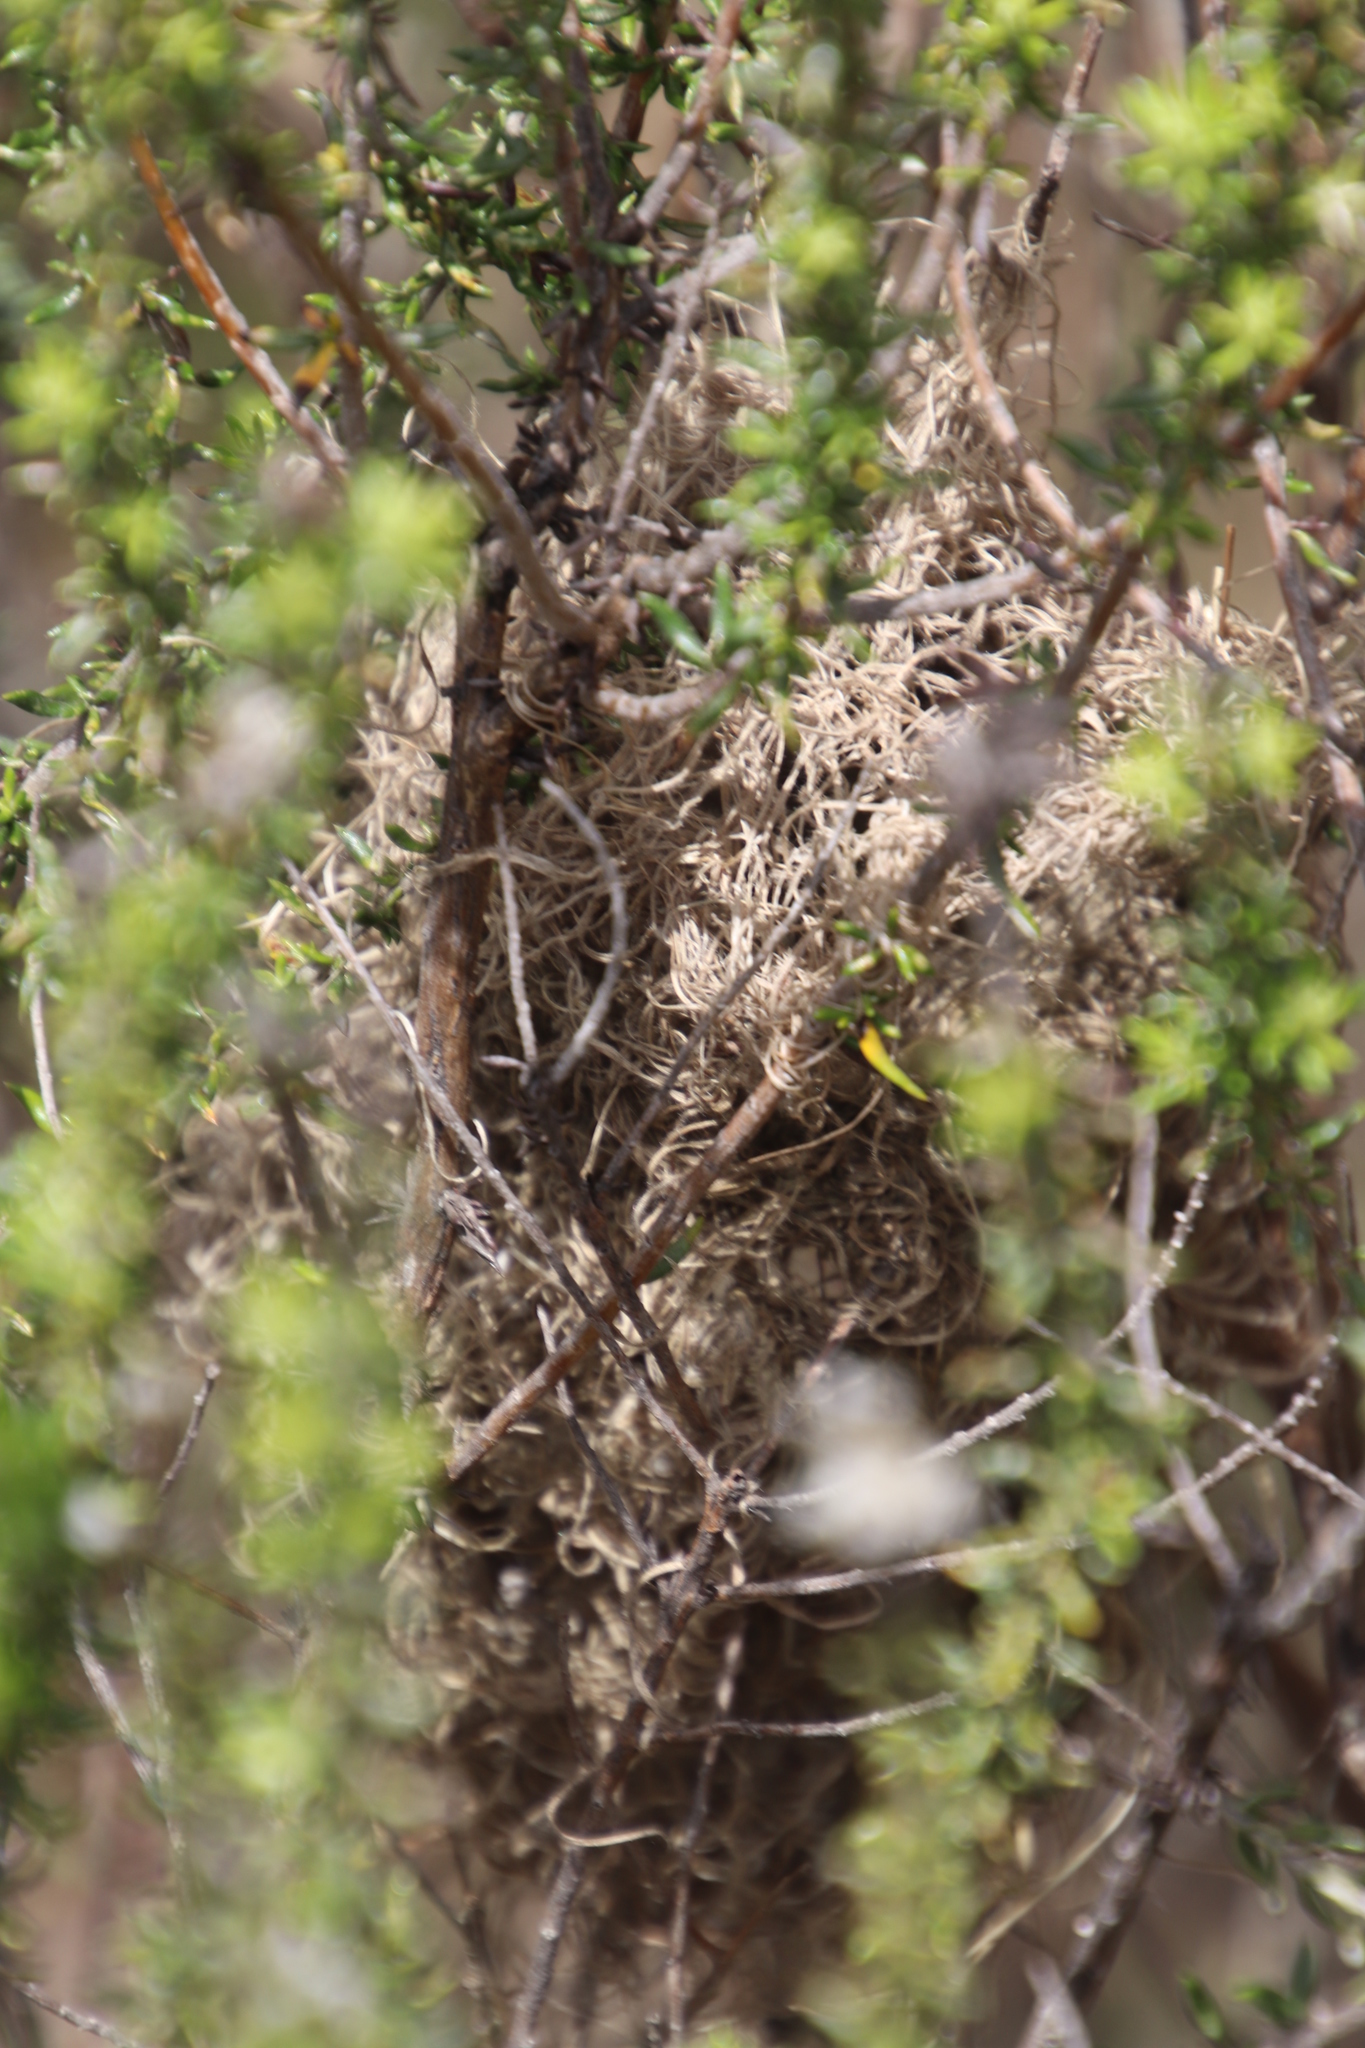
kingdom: Animalia
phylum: Arthropoda
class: Insecta
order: Hymenoptera
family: Formicidae
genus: Crematogaster
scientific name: Crematogaster peringueyi
